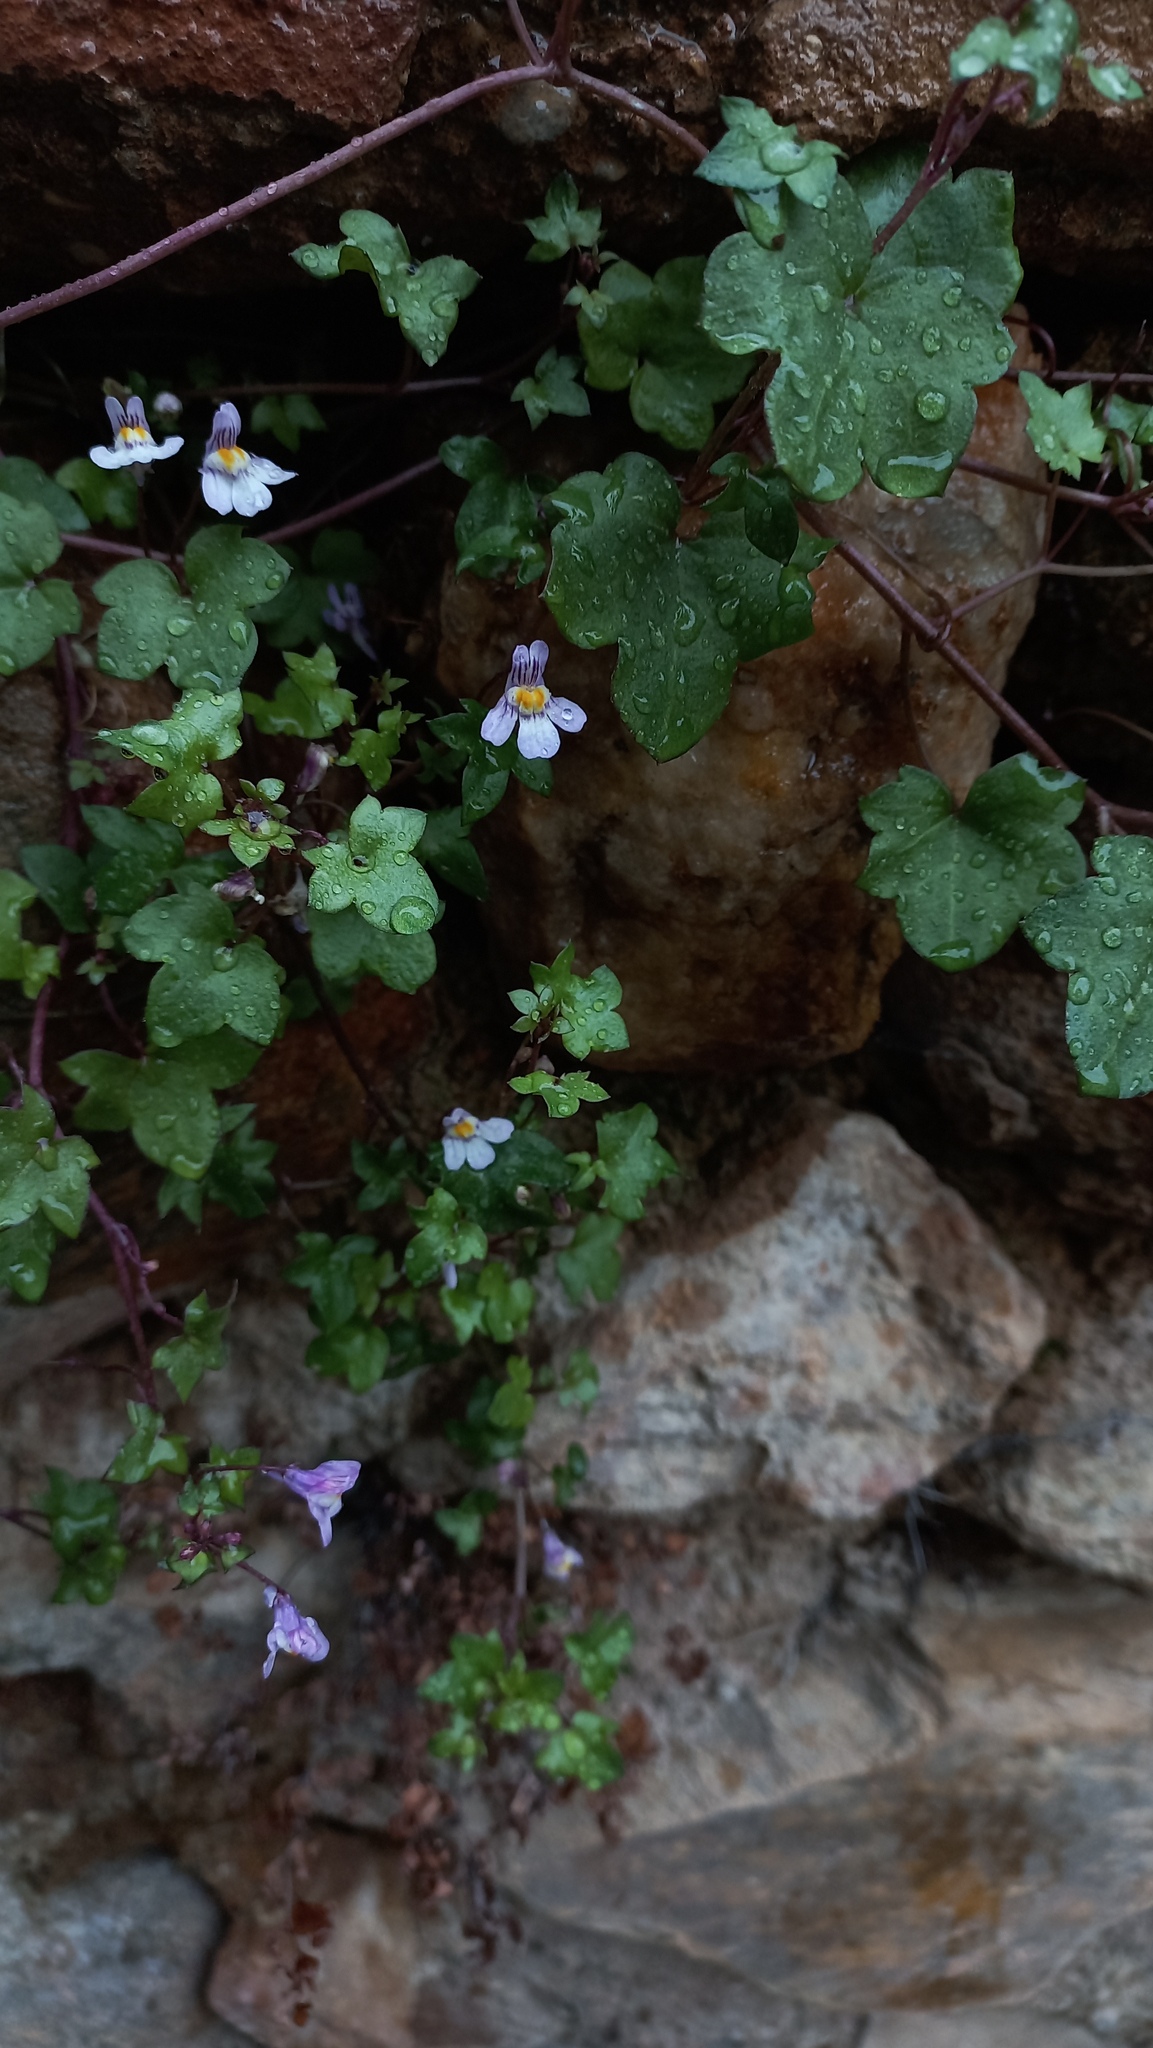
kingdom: Plantae
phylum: Tracheophyta
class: Magnoliopsida
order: Lamiales
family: Plantaginaceae
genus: Cymbalaria
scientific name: Cymbalaria muralis
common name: Ivy-leaved toadflax
